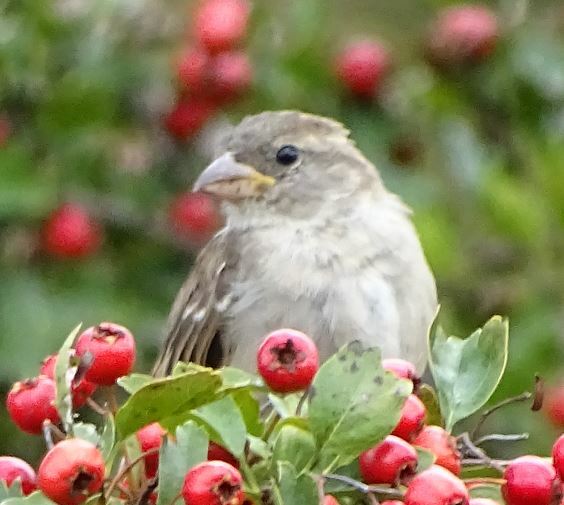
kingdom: Animalia
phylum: Chordata
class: Aves
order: Passeriformes
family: Passeridae
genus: Passer
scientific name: Passer domesticus
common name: House sparrow
